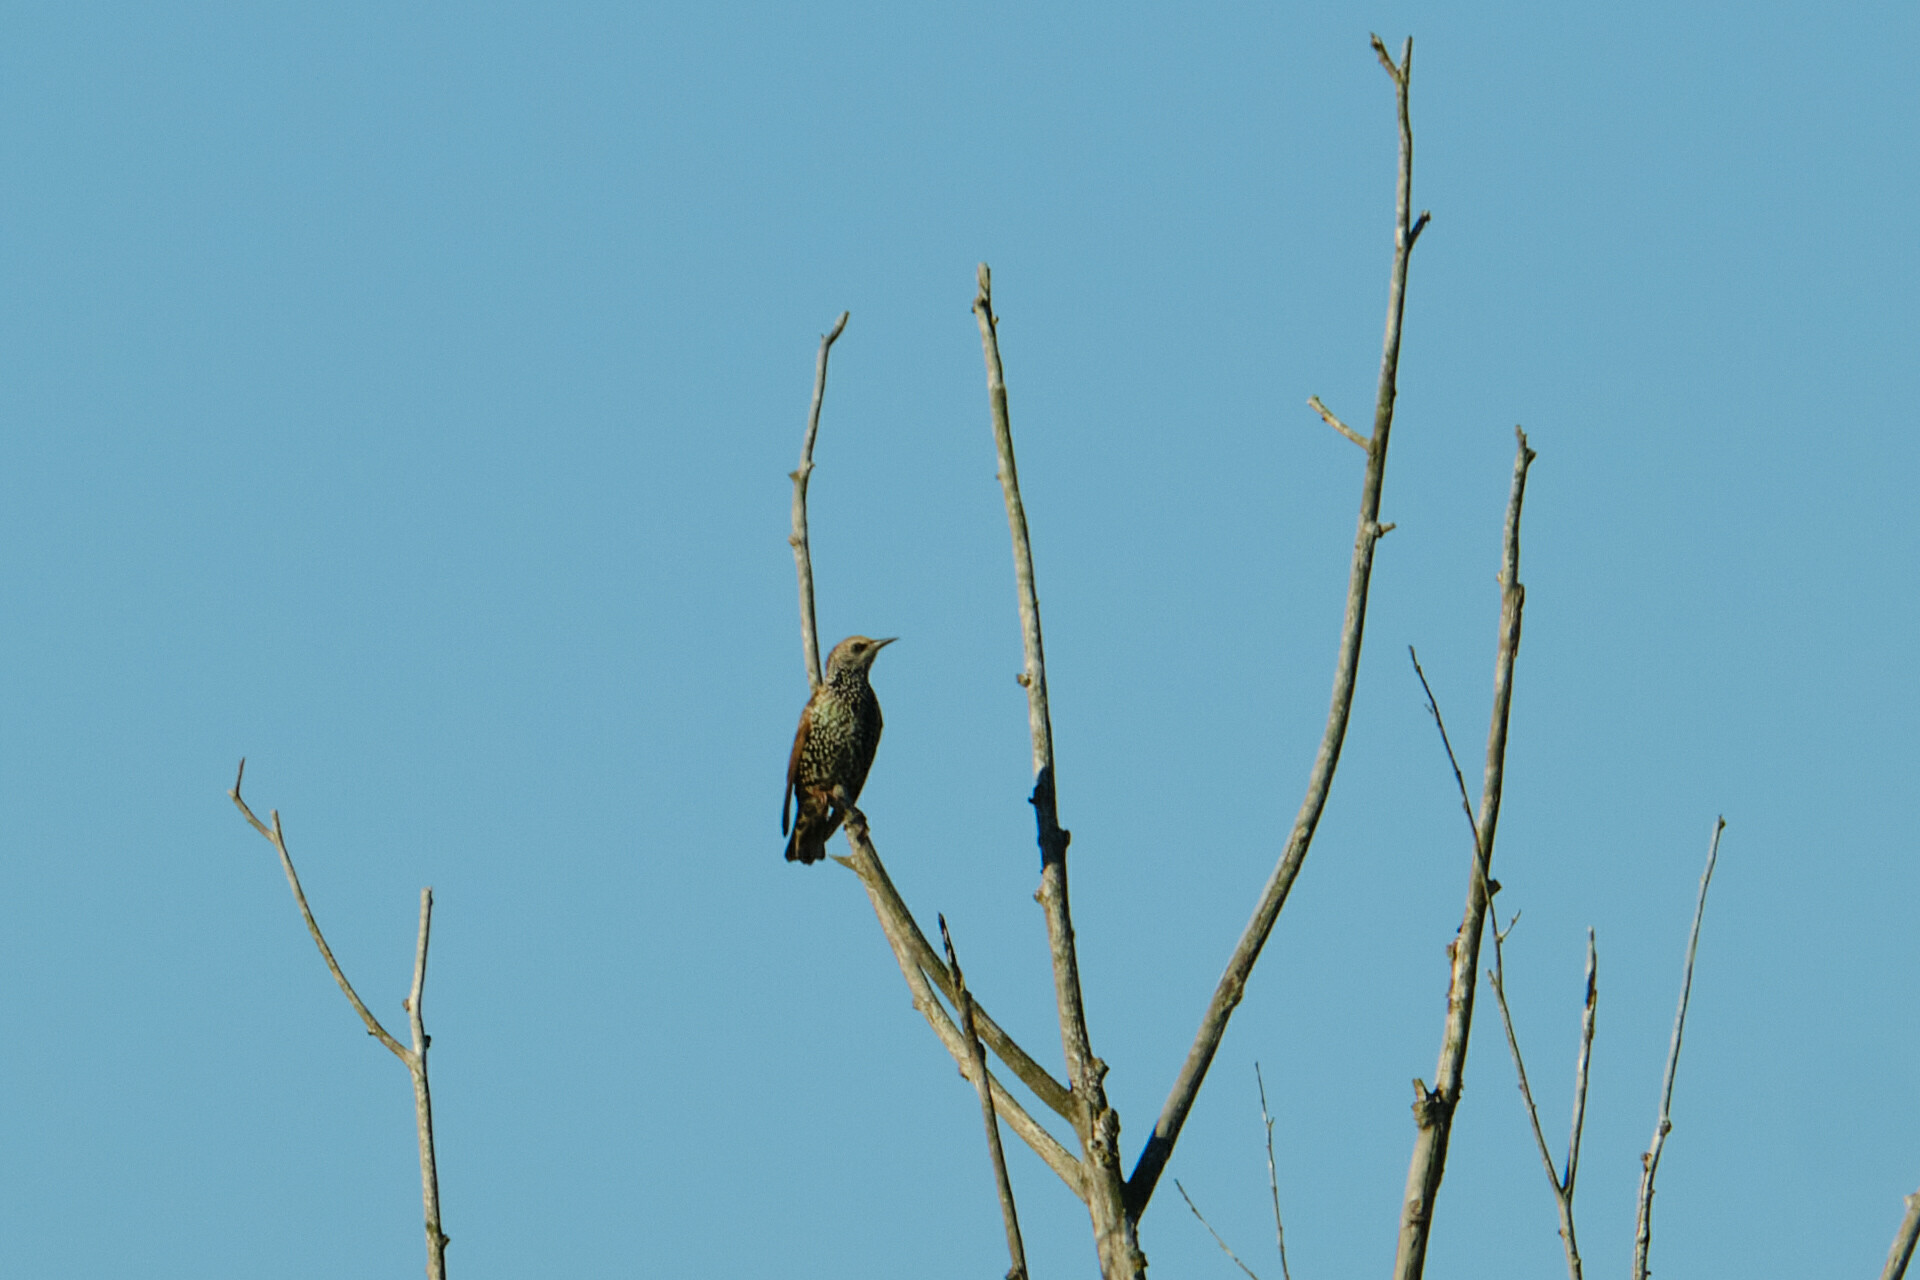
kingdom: Animalia
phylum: Chordata
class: Aves
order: Passeriformes
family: Sturnidae
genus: Sturnus
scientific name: Sturnus vulgaris
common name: Common starling
